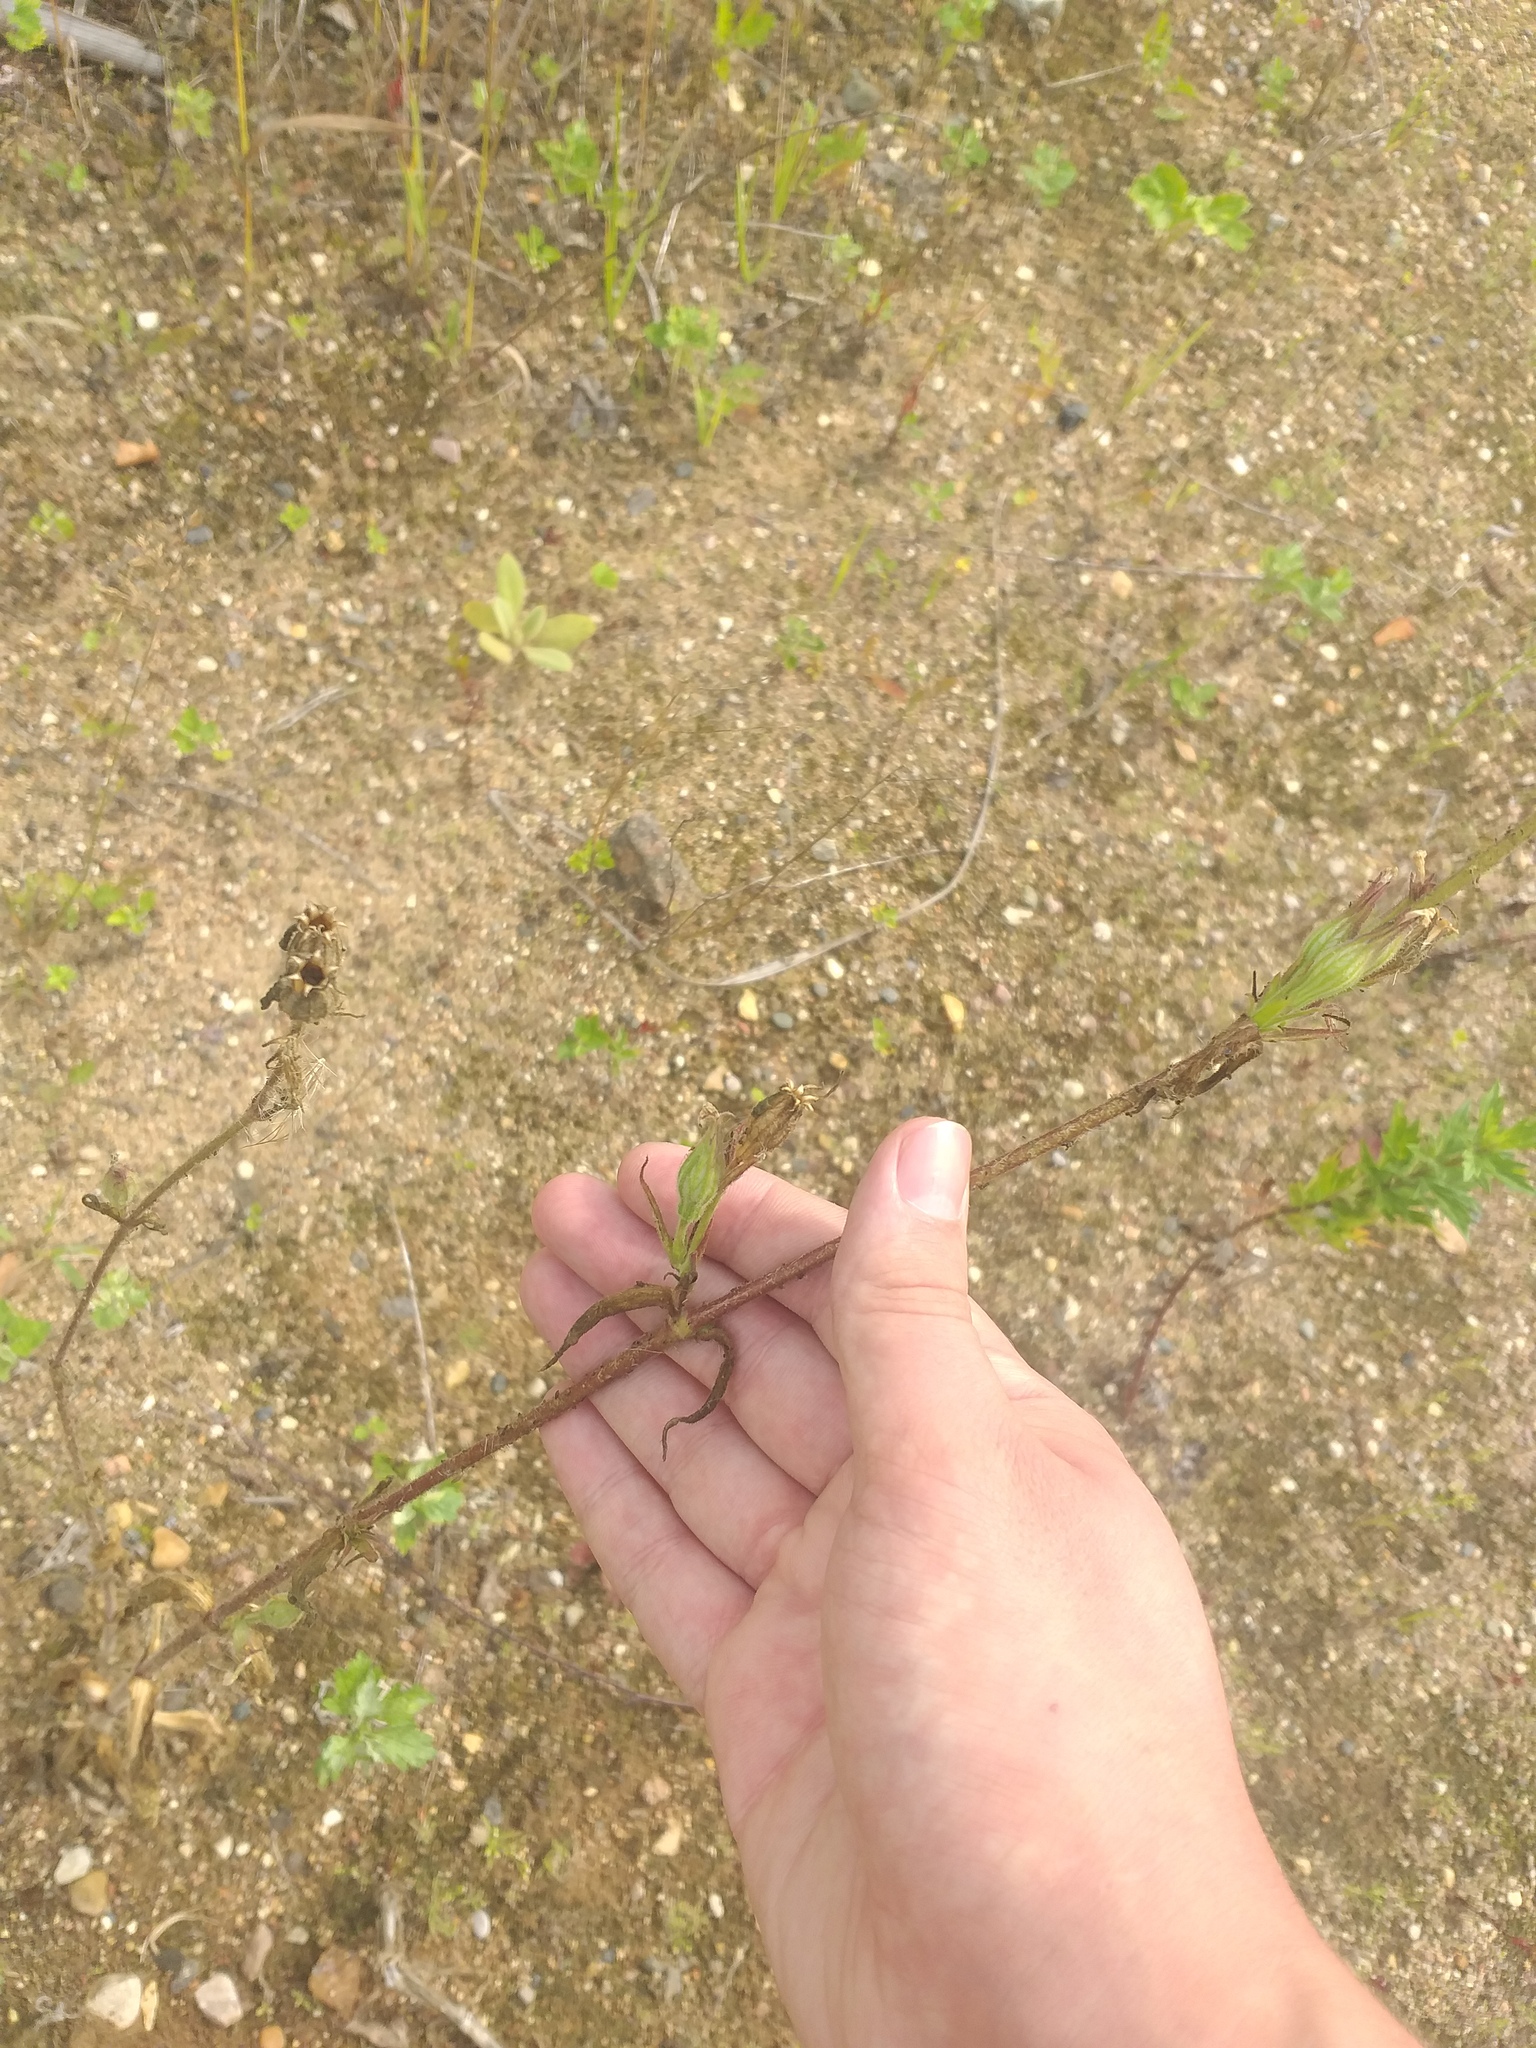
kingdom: Plantae
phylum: Tracheophyta
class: Magnoliopsida
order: Caryophyllales
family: Caryophyllaceae
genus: Silene
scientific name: Silene noctiflora
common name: Night-flowering catchfly
